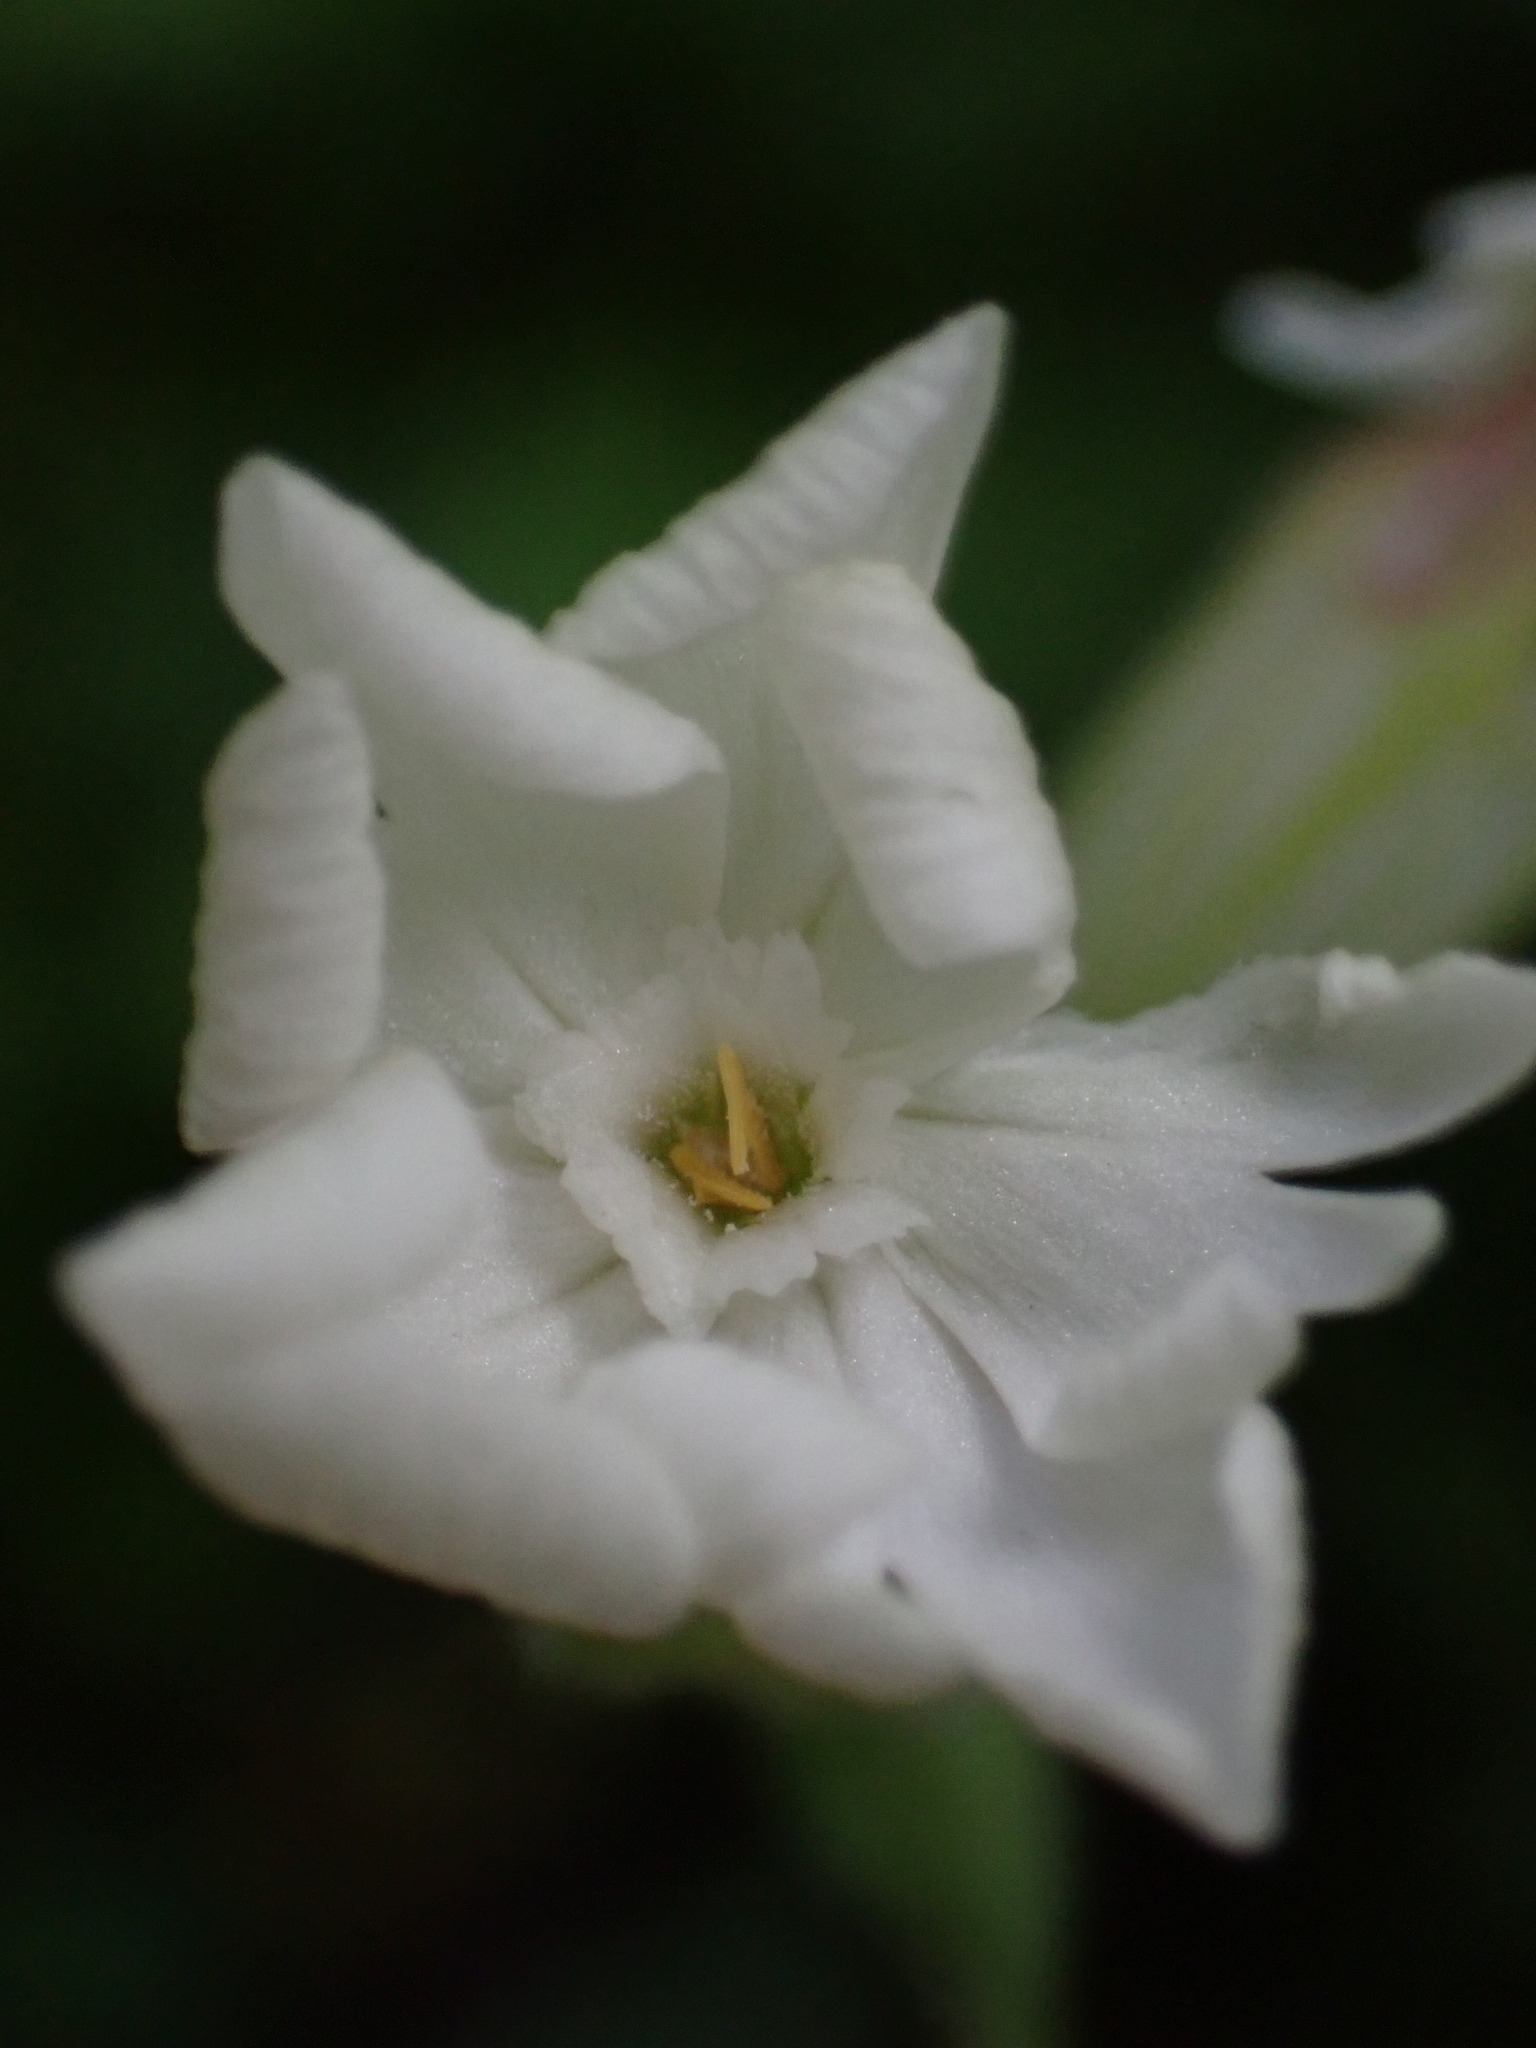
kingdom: Plantae
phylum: Tracheophyta
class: Magnoliopsida
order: Caryophyllales
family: Caryophyllaceae
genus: Silene
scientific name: Silene latifolia
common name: White campion
